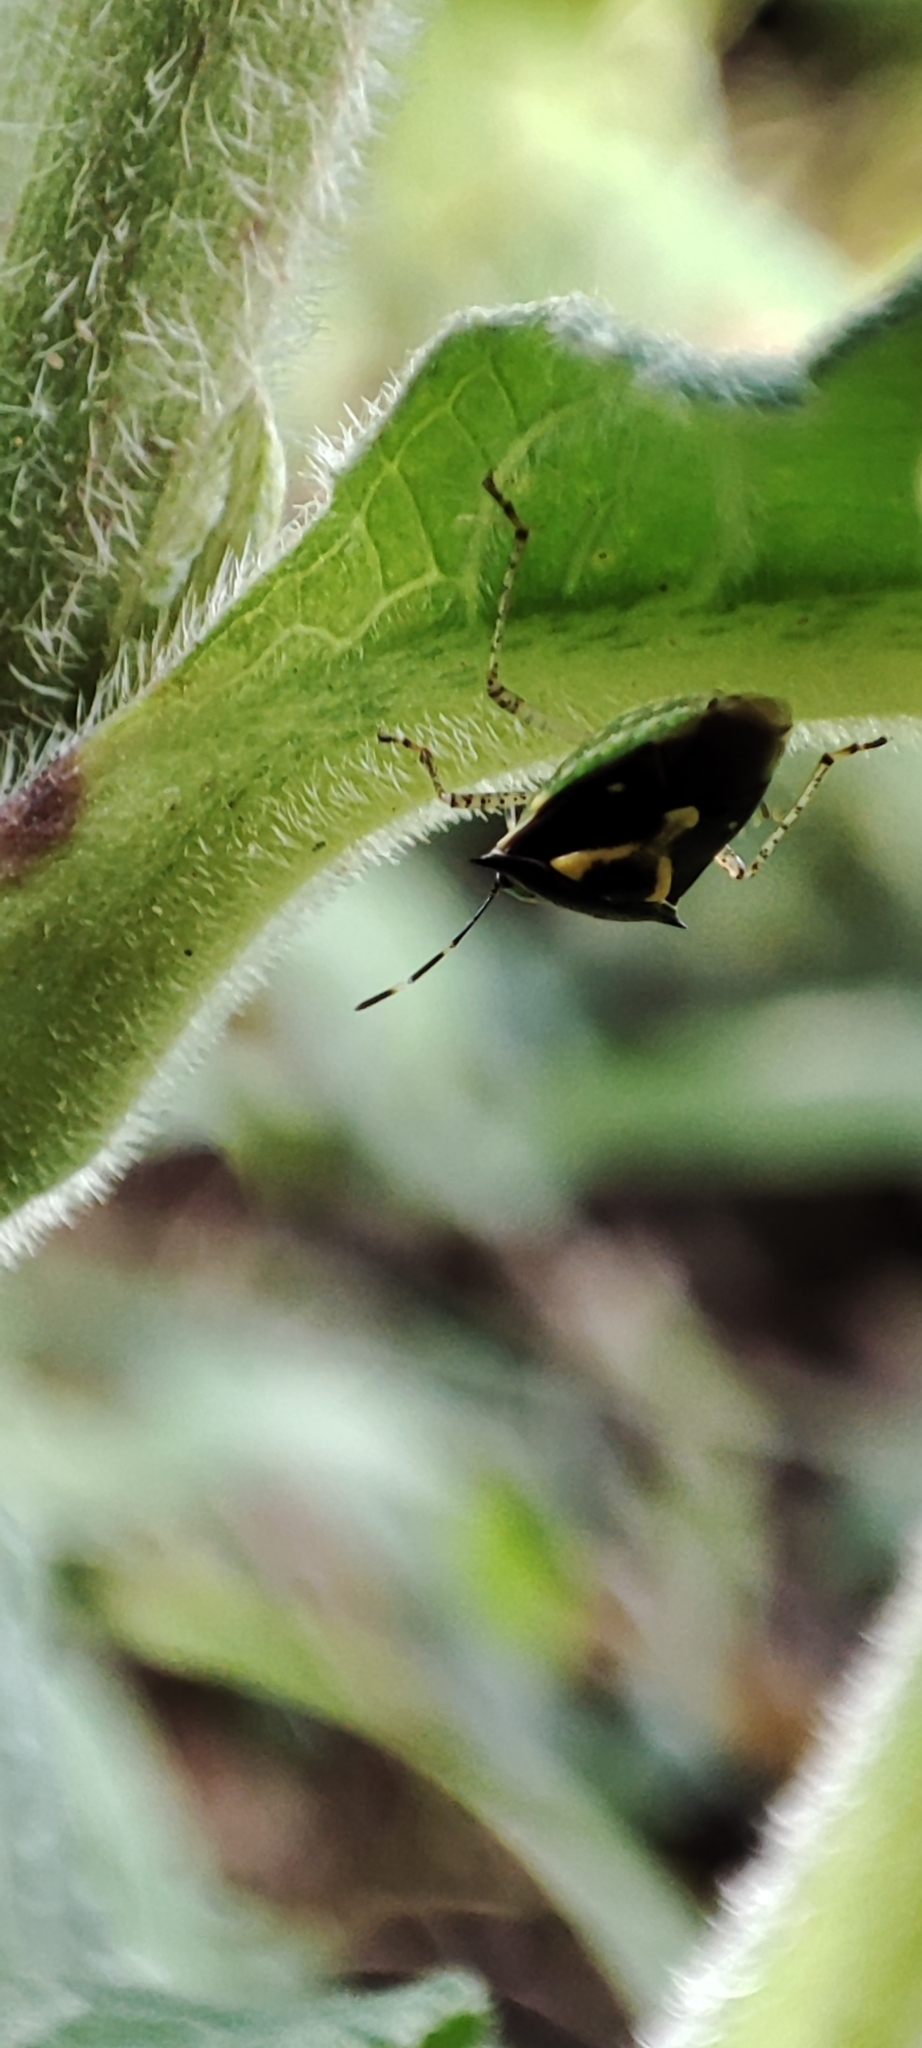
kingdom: Animalia
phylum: Arthropoda
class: Insecta
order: Hemiptera
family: Pentatomidae
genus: Mormidea
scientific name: Mormidea ypsilon
